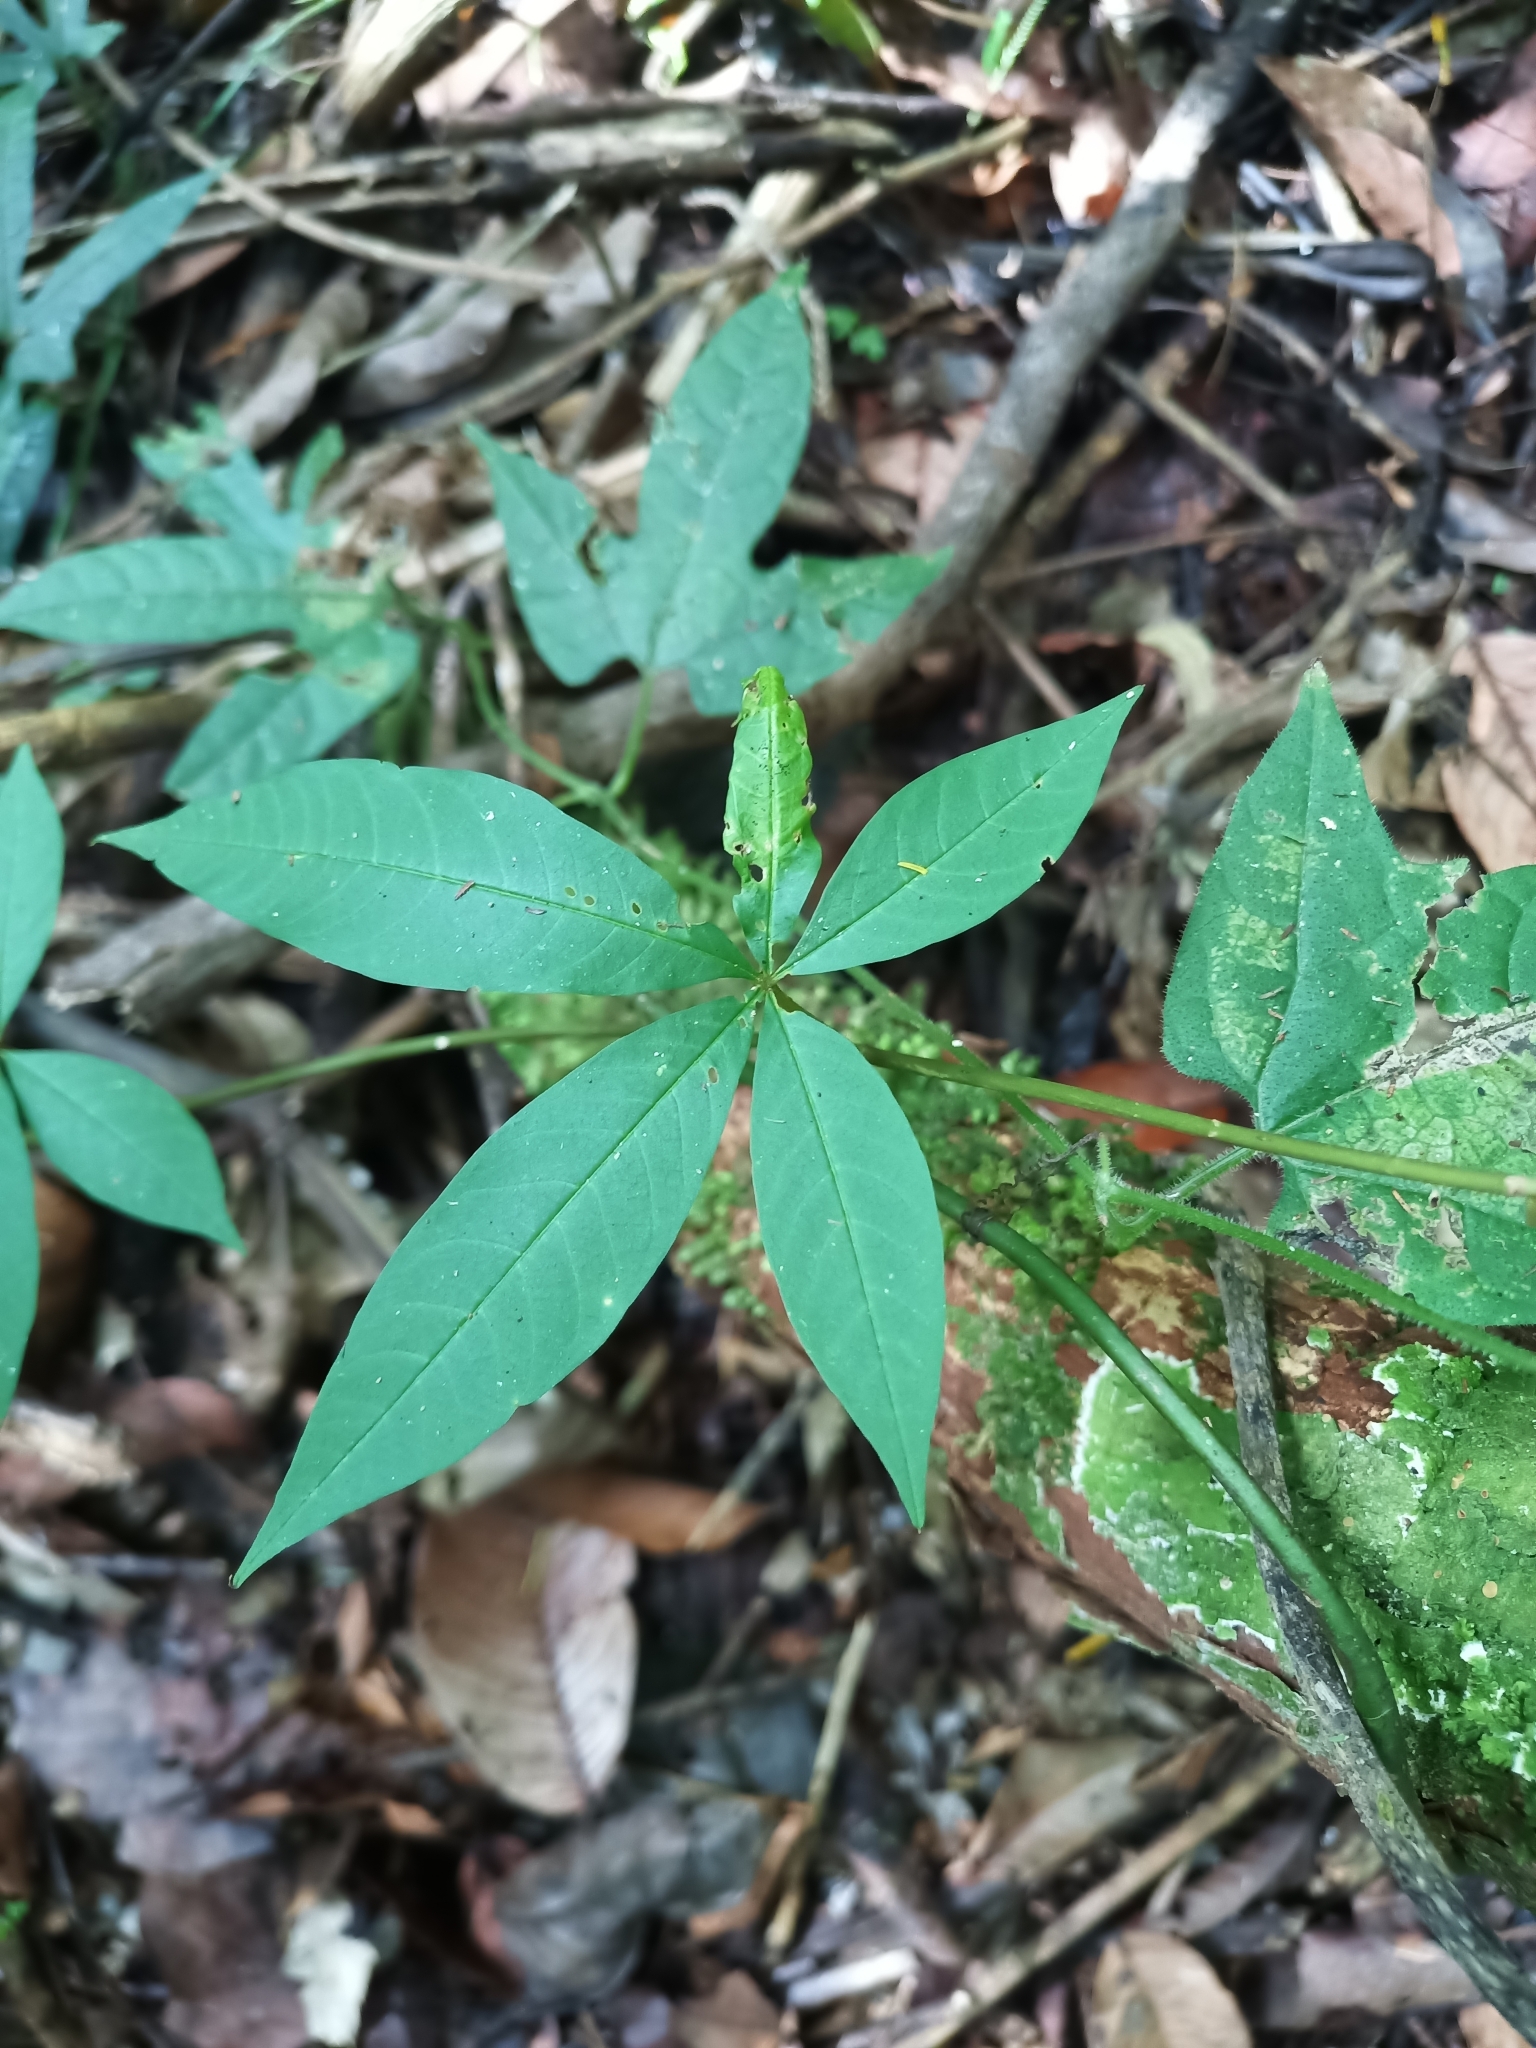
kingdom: Plantae
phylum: Tracheophyta
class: Magnoliopsida
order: Solanales
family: Convolvulaceae
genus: Distimake
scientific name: Distimake macrocalyx
